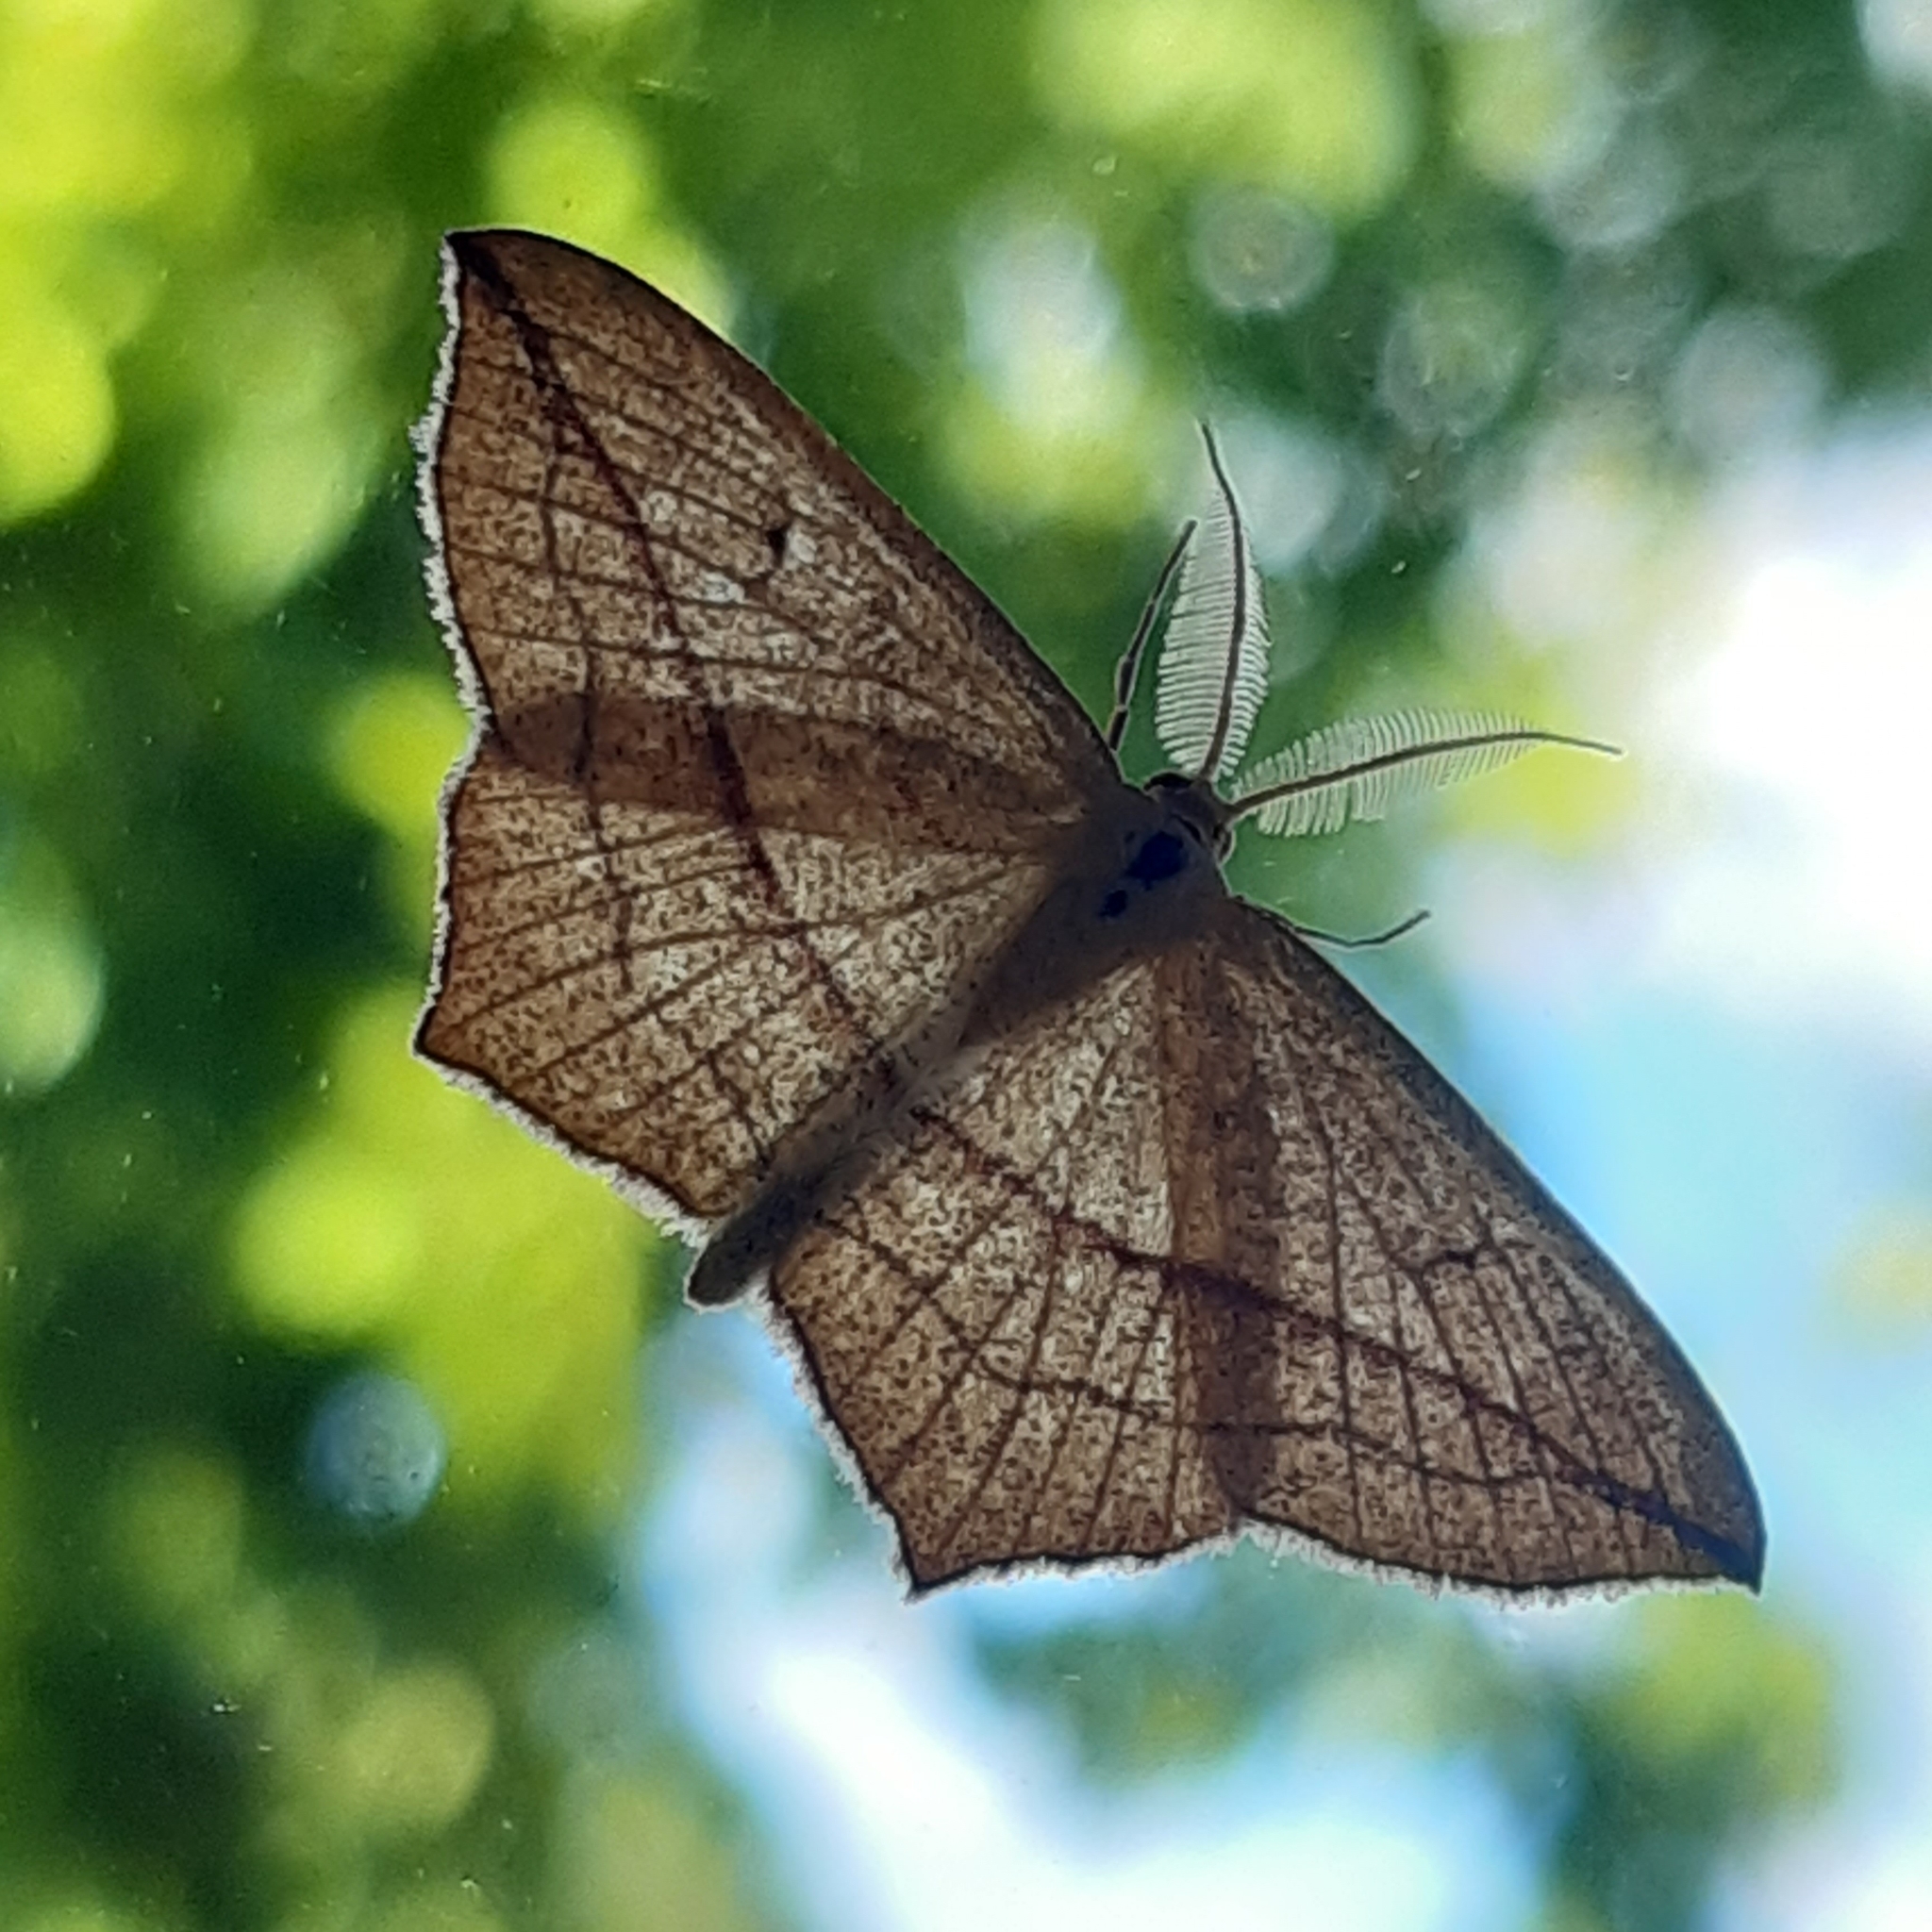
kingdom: Animalia
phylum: Arthropoda
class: Insecta
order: Lepidoptera
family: Geometridae
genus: Timandra
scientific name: Timandra comae
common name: Blood-vein
